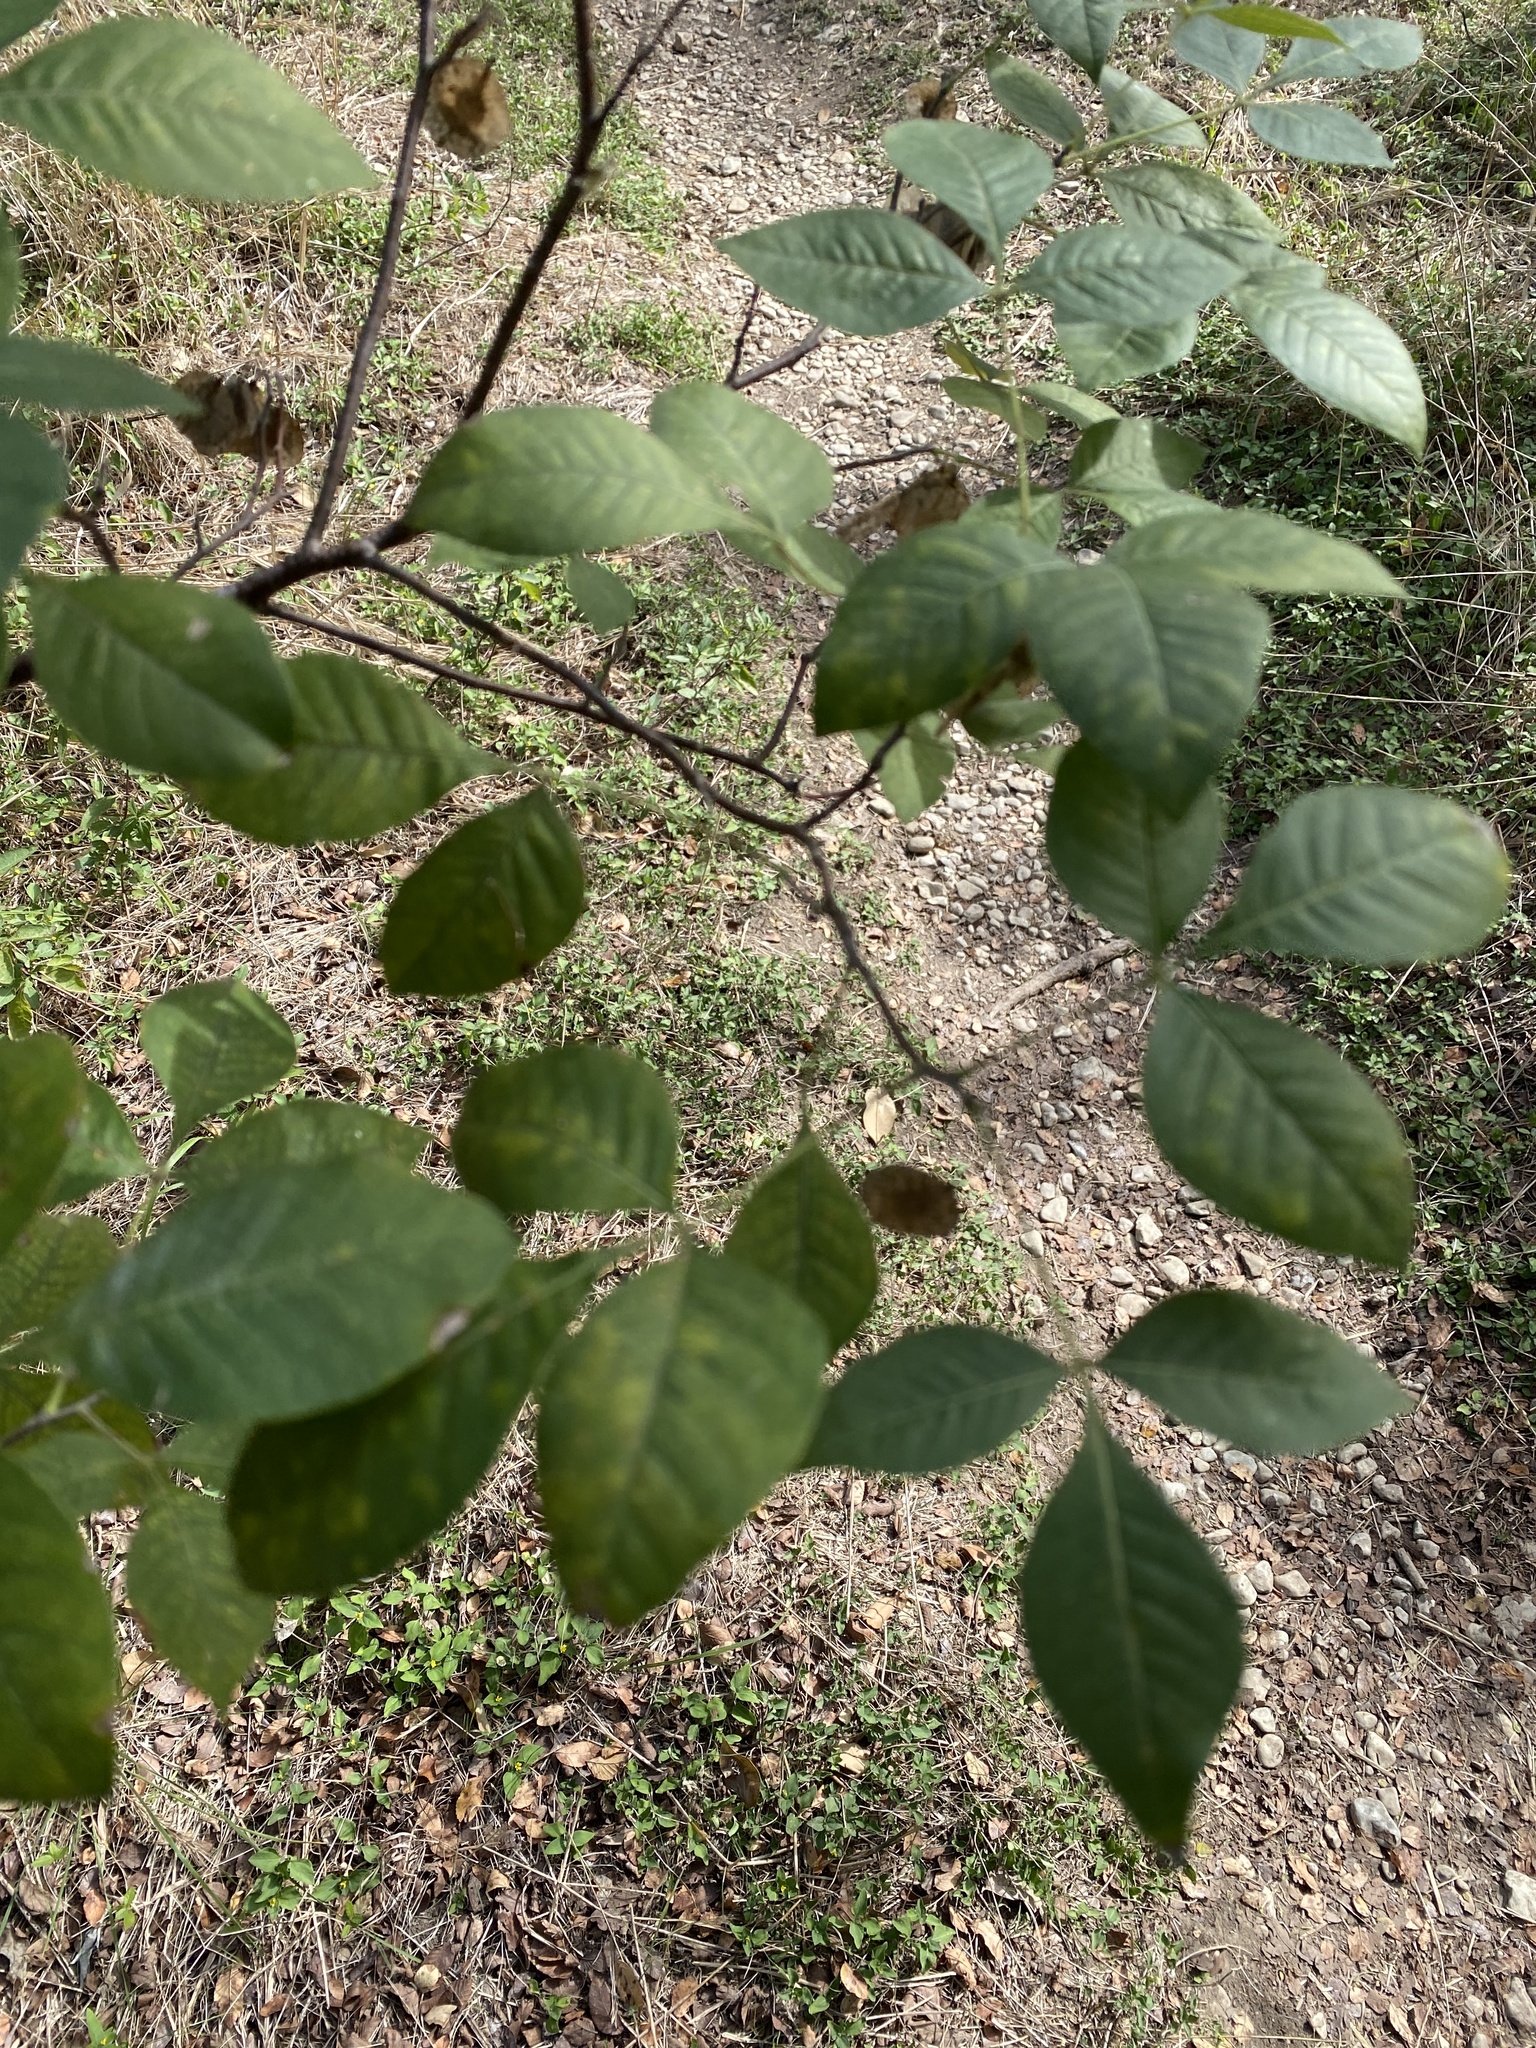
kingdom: Plantae
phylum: Tracheophyta
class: Magnoliopsida
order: Sapindales
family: Rutaceae
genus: Ptelea
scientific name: Ptelea trifoliata
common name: Common hop-tree
